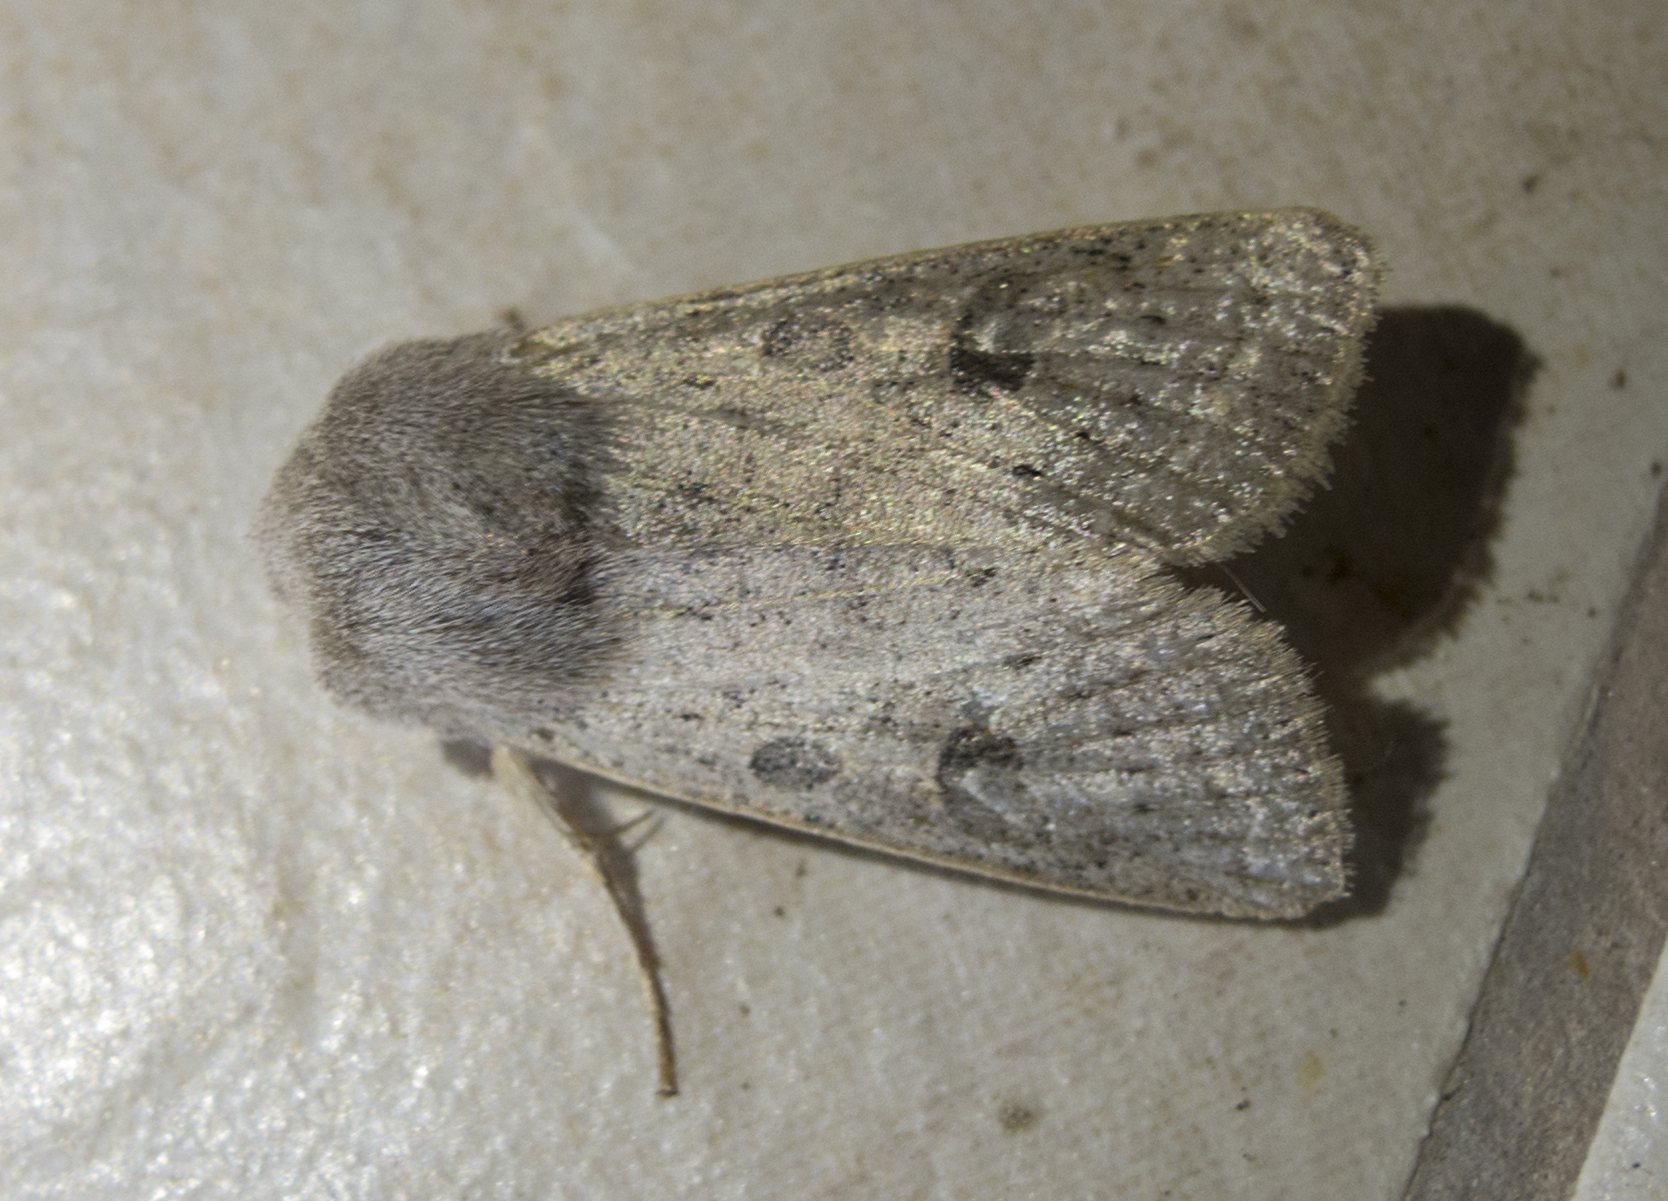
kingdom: Animalia
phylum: Arthropoda
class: Insecta
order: Lepidoptera
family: Noctuidae
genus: Orthosia
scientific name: Orthosia gracilis
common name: Powdered quaker
